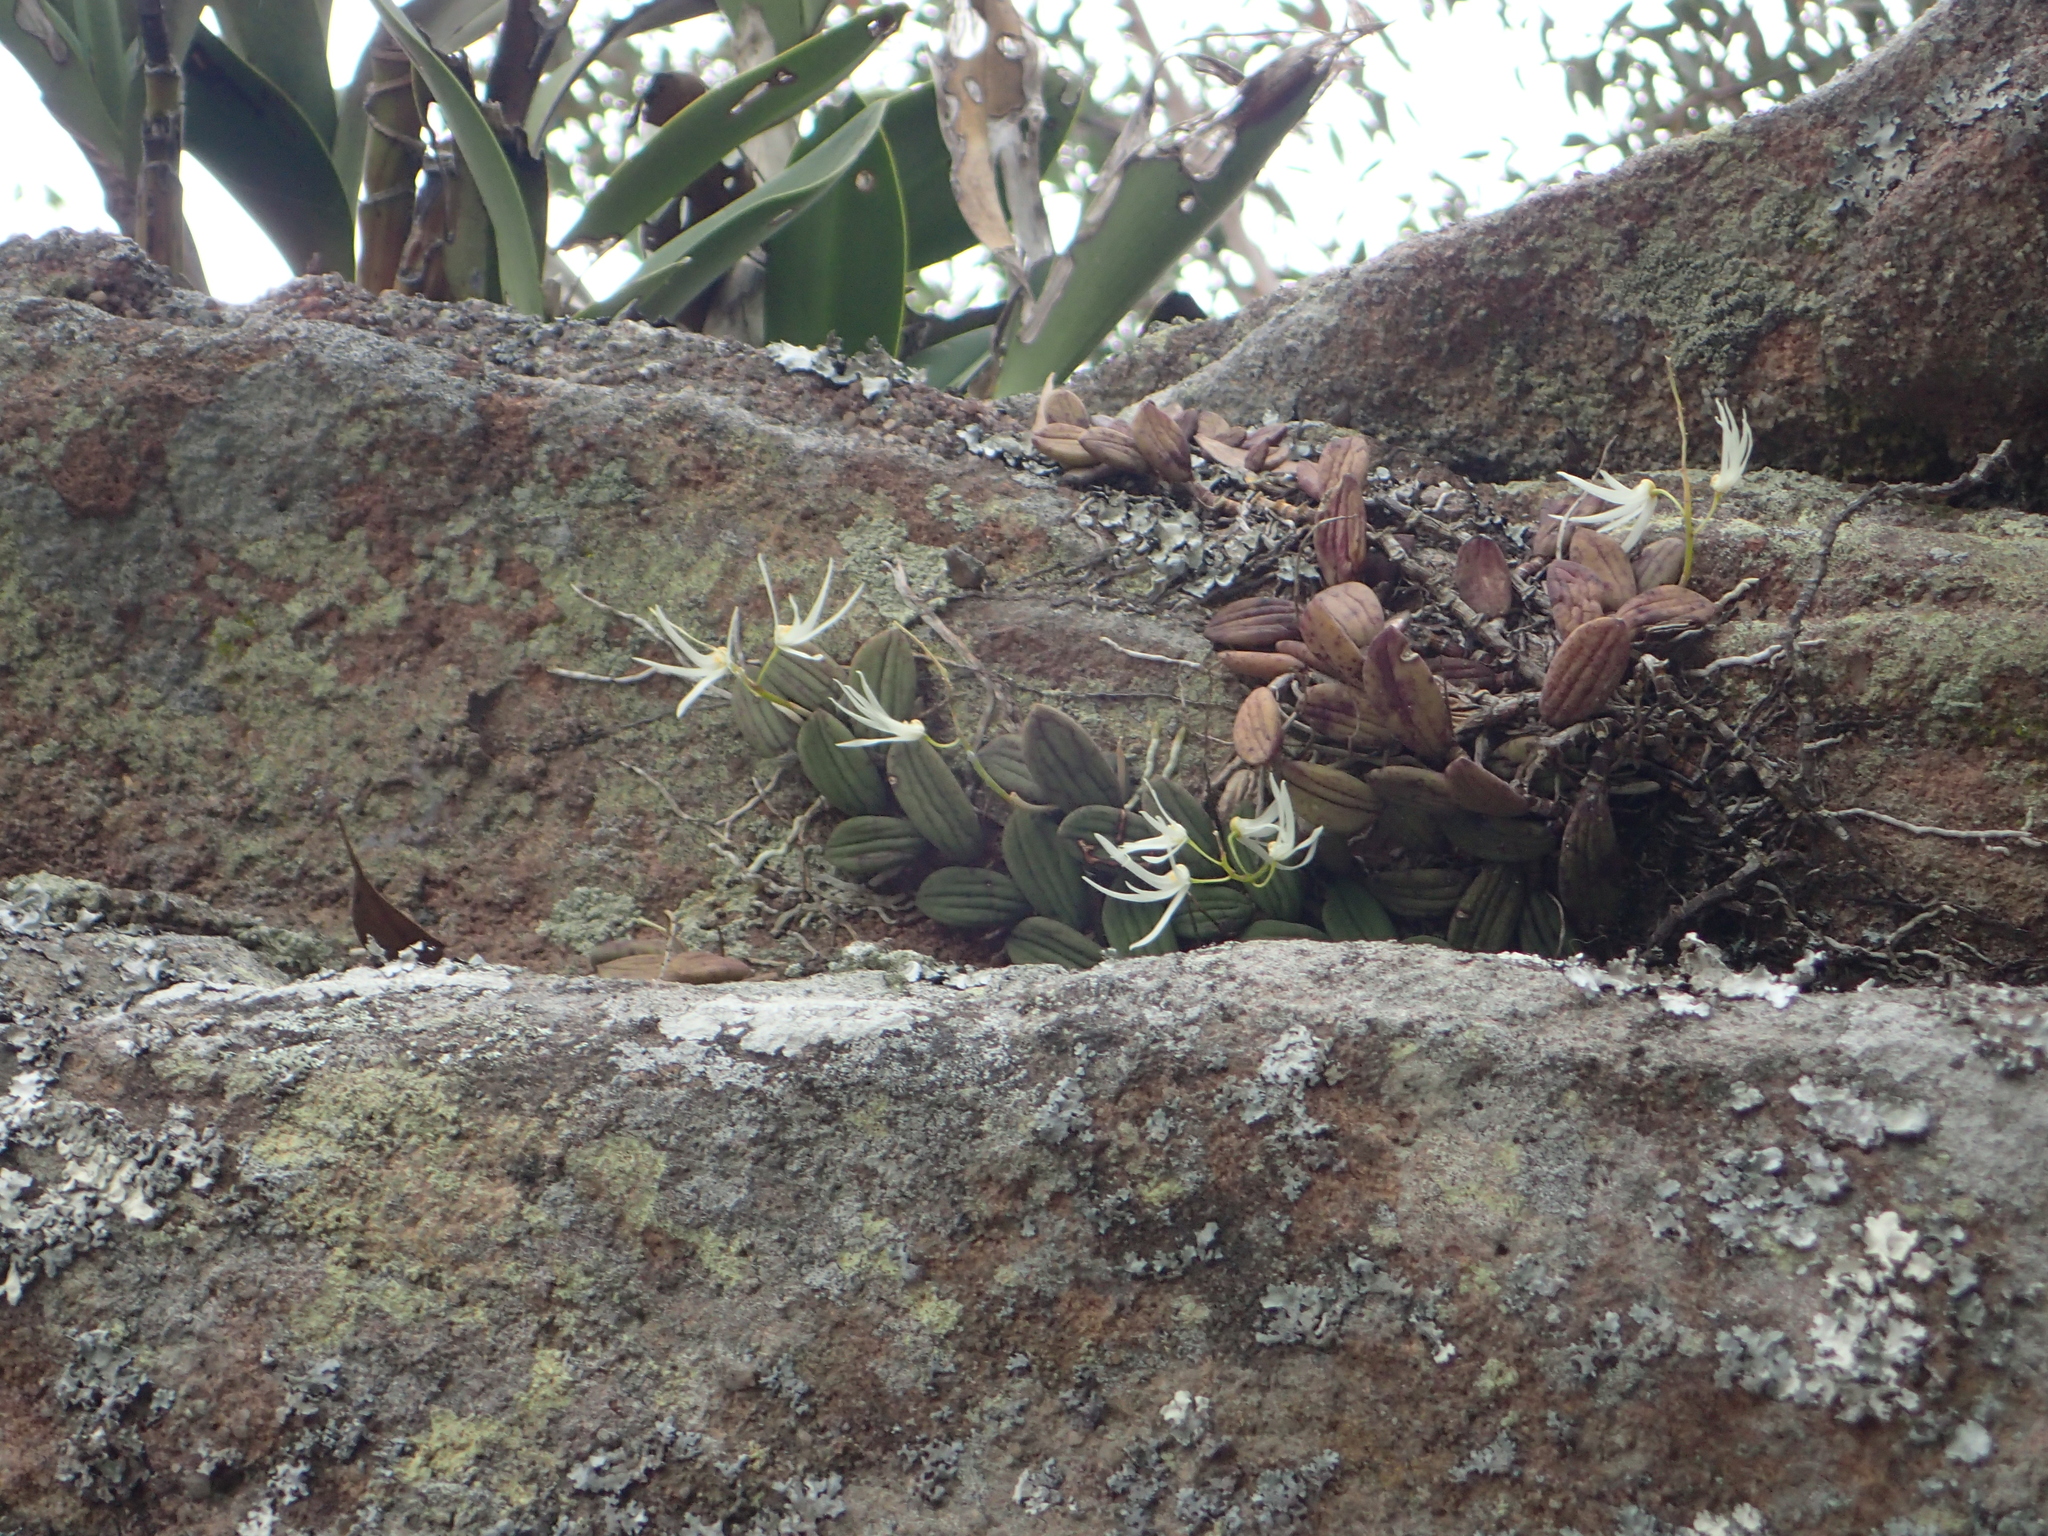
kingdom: Plantae
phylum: Tracheophyta
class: Liliopsida
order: Asparagales
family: Orchidaceae
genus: Dendrobium
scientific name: Dendrobium linguiforme
